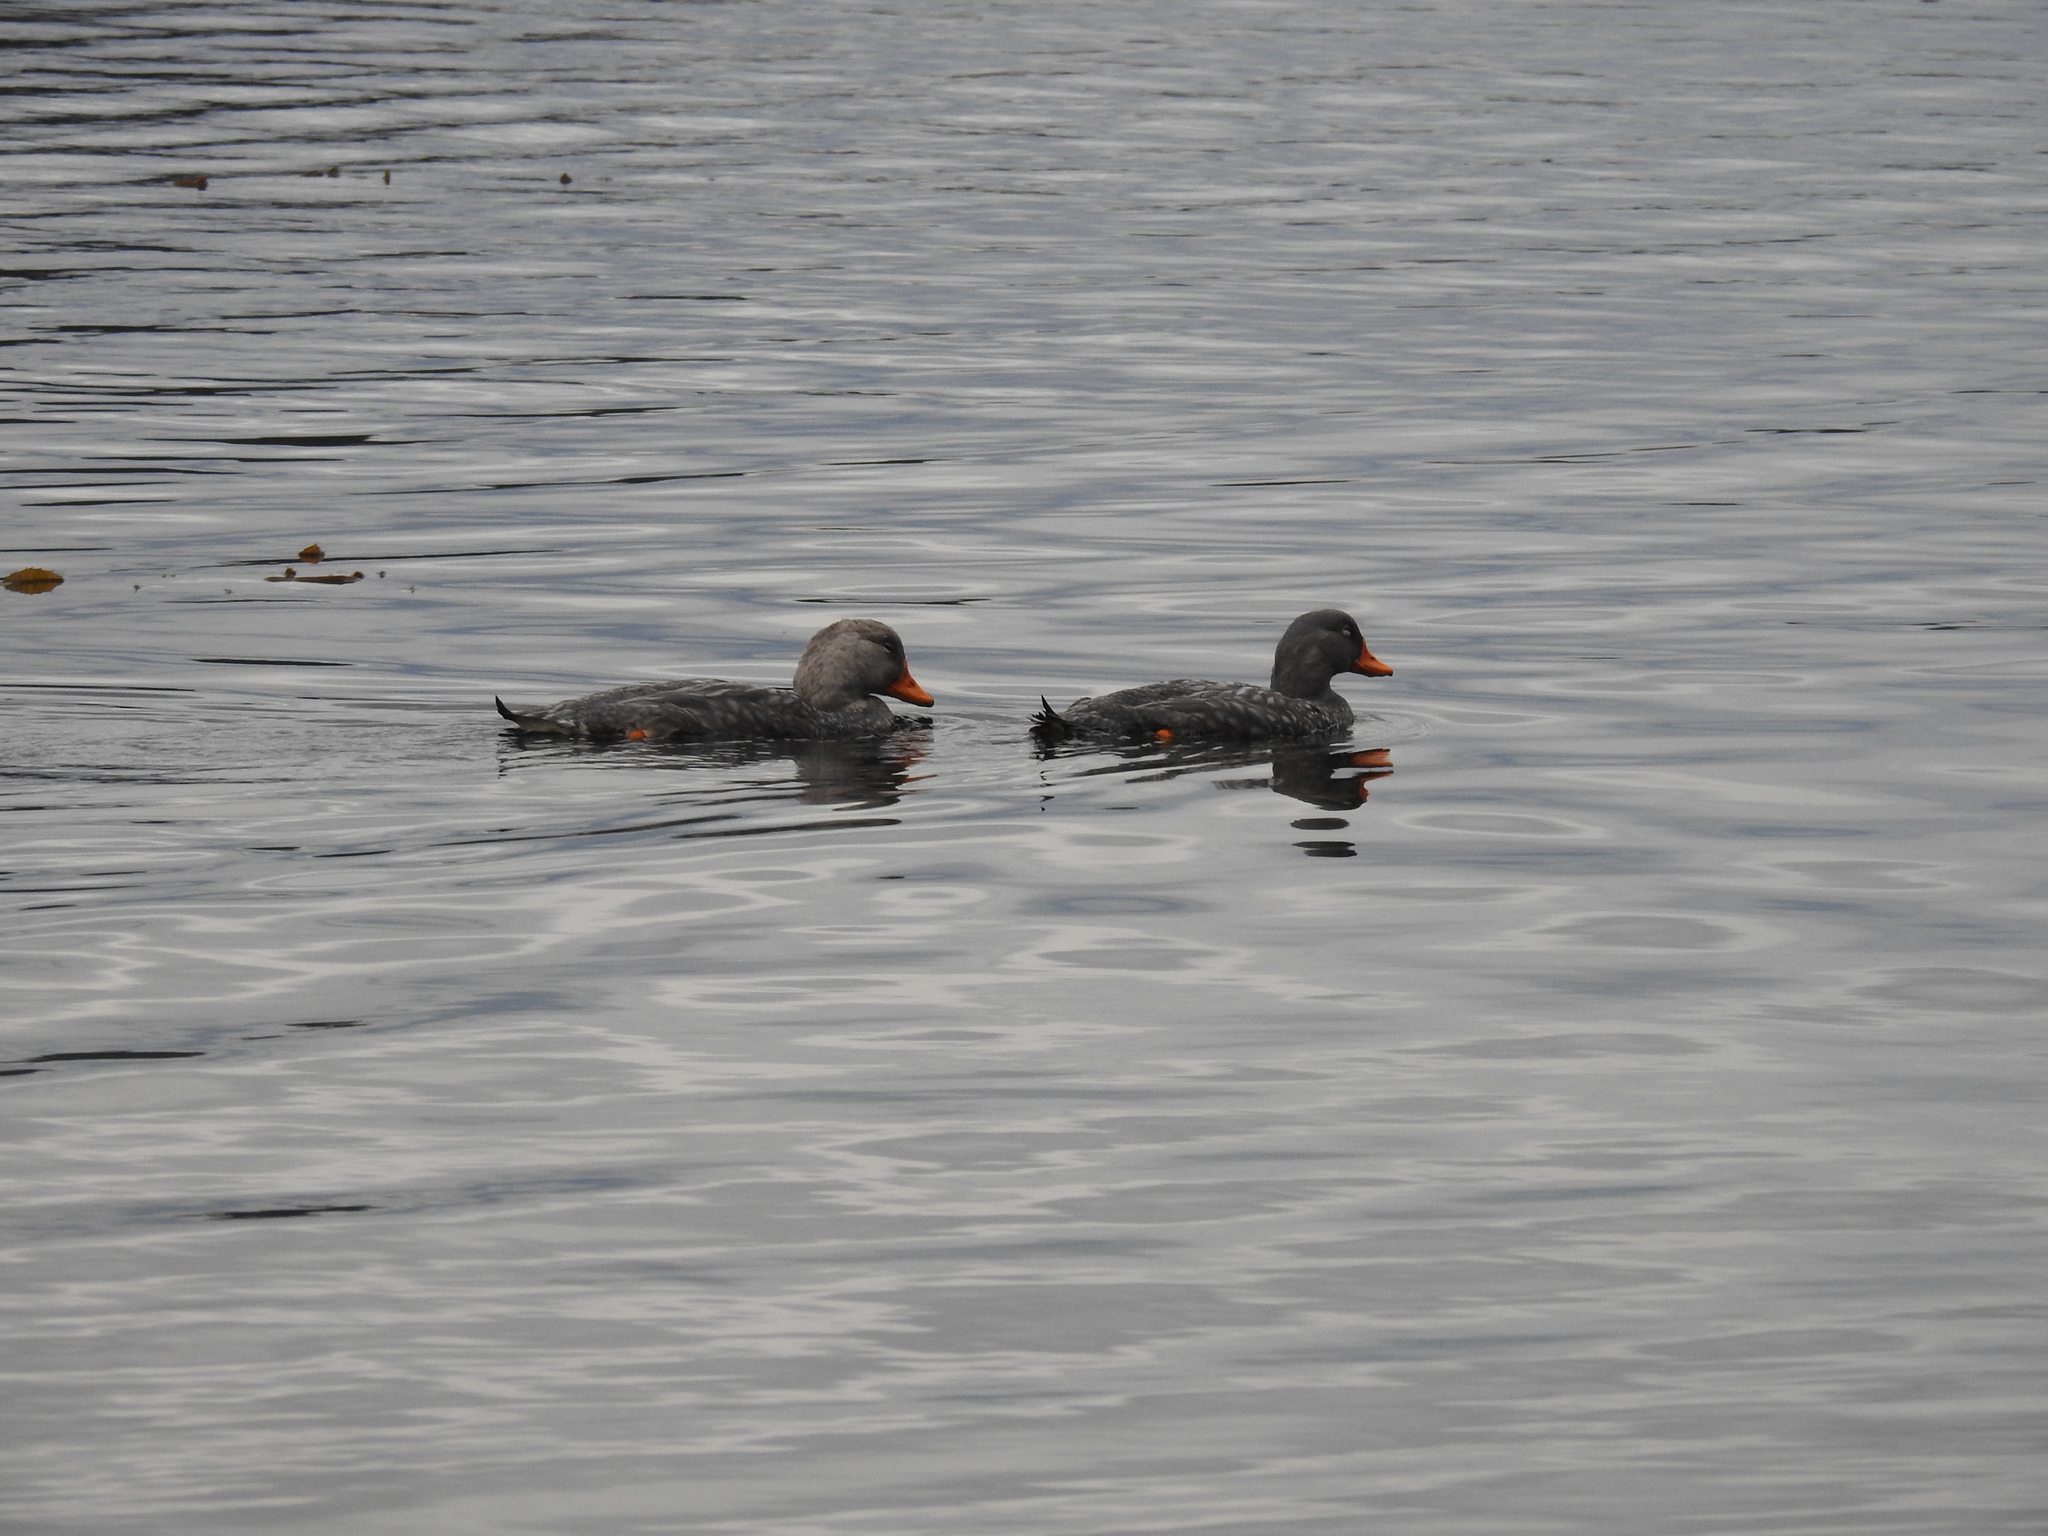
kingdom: Animalia
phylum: Chordata
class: Aves
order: Anseriformes
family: Anatidae
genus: Tachyeres
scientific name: Tachyeres pteneres
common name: Fuegian steamer duck
